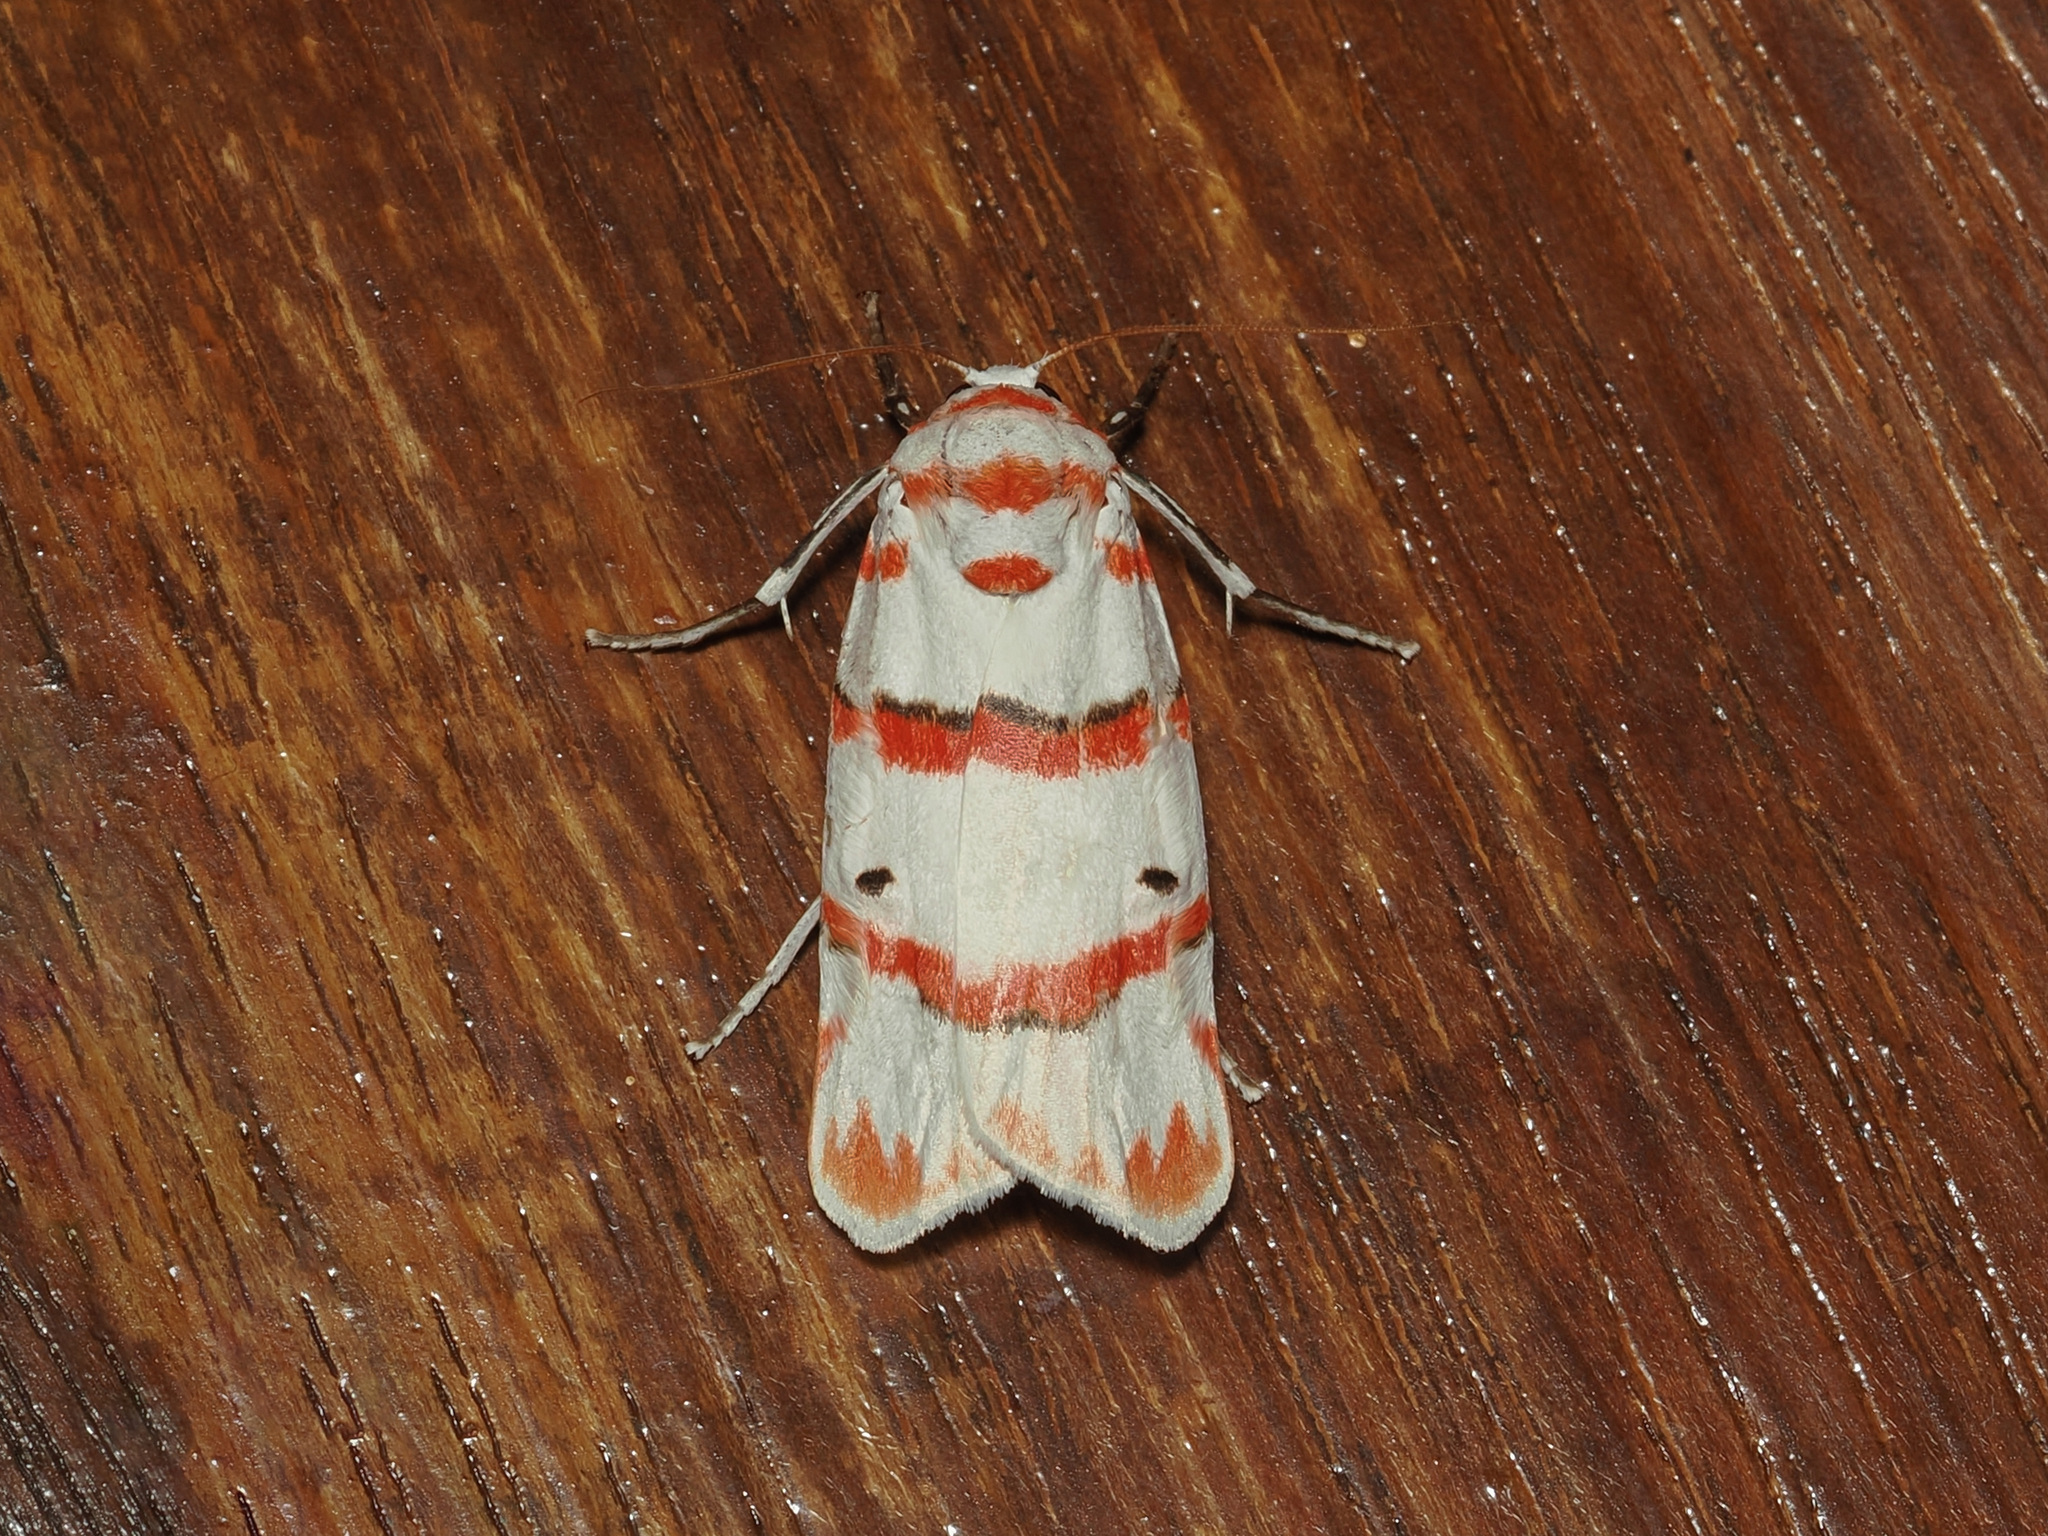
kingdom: Animalia
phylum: Arthropoda
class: Insecta
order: Lepidoptera
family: Erebidae
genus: Cyana
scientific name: Cyana perornata
